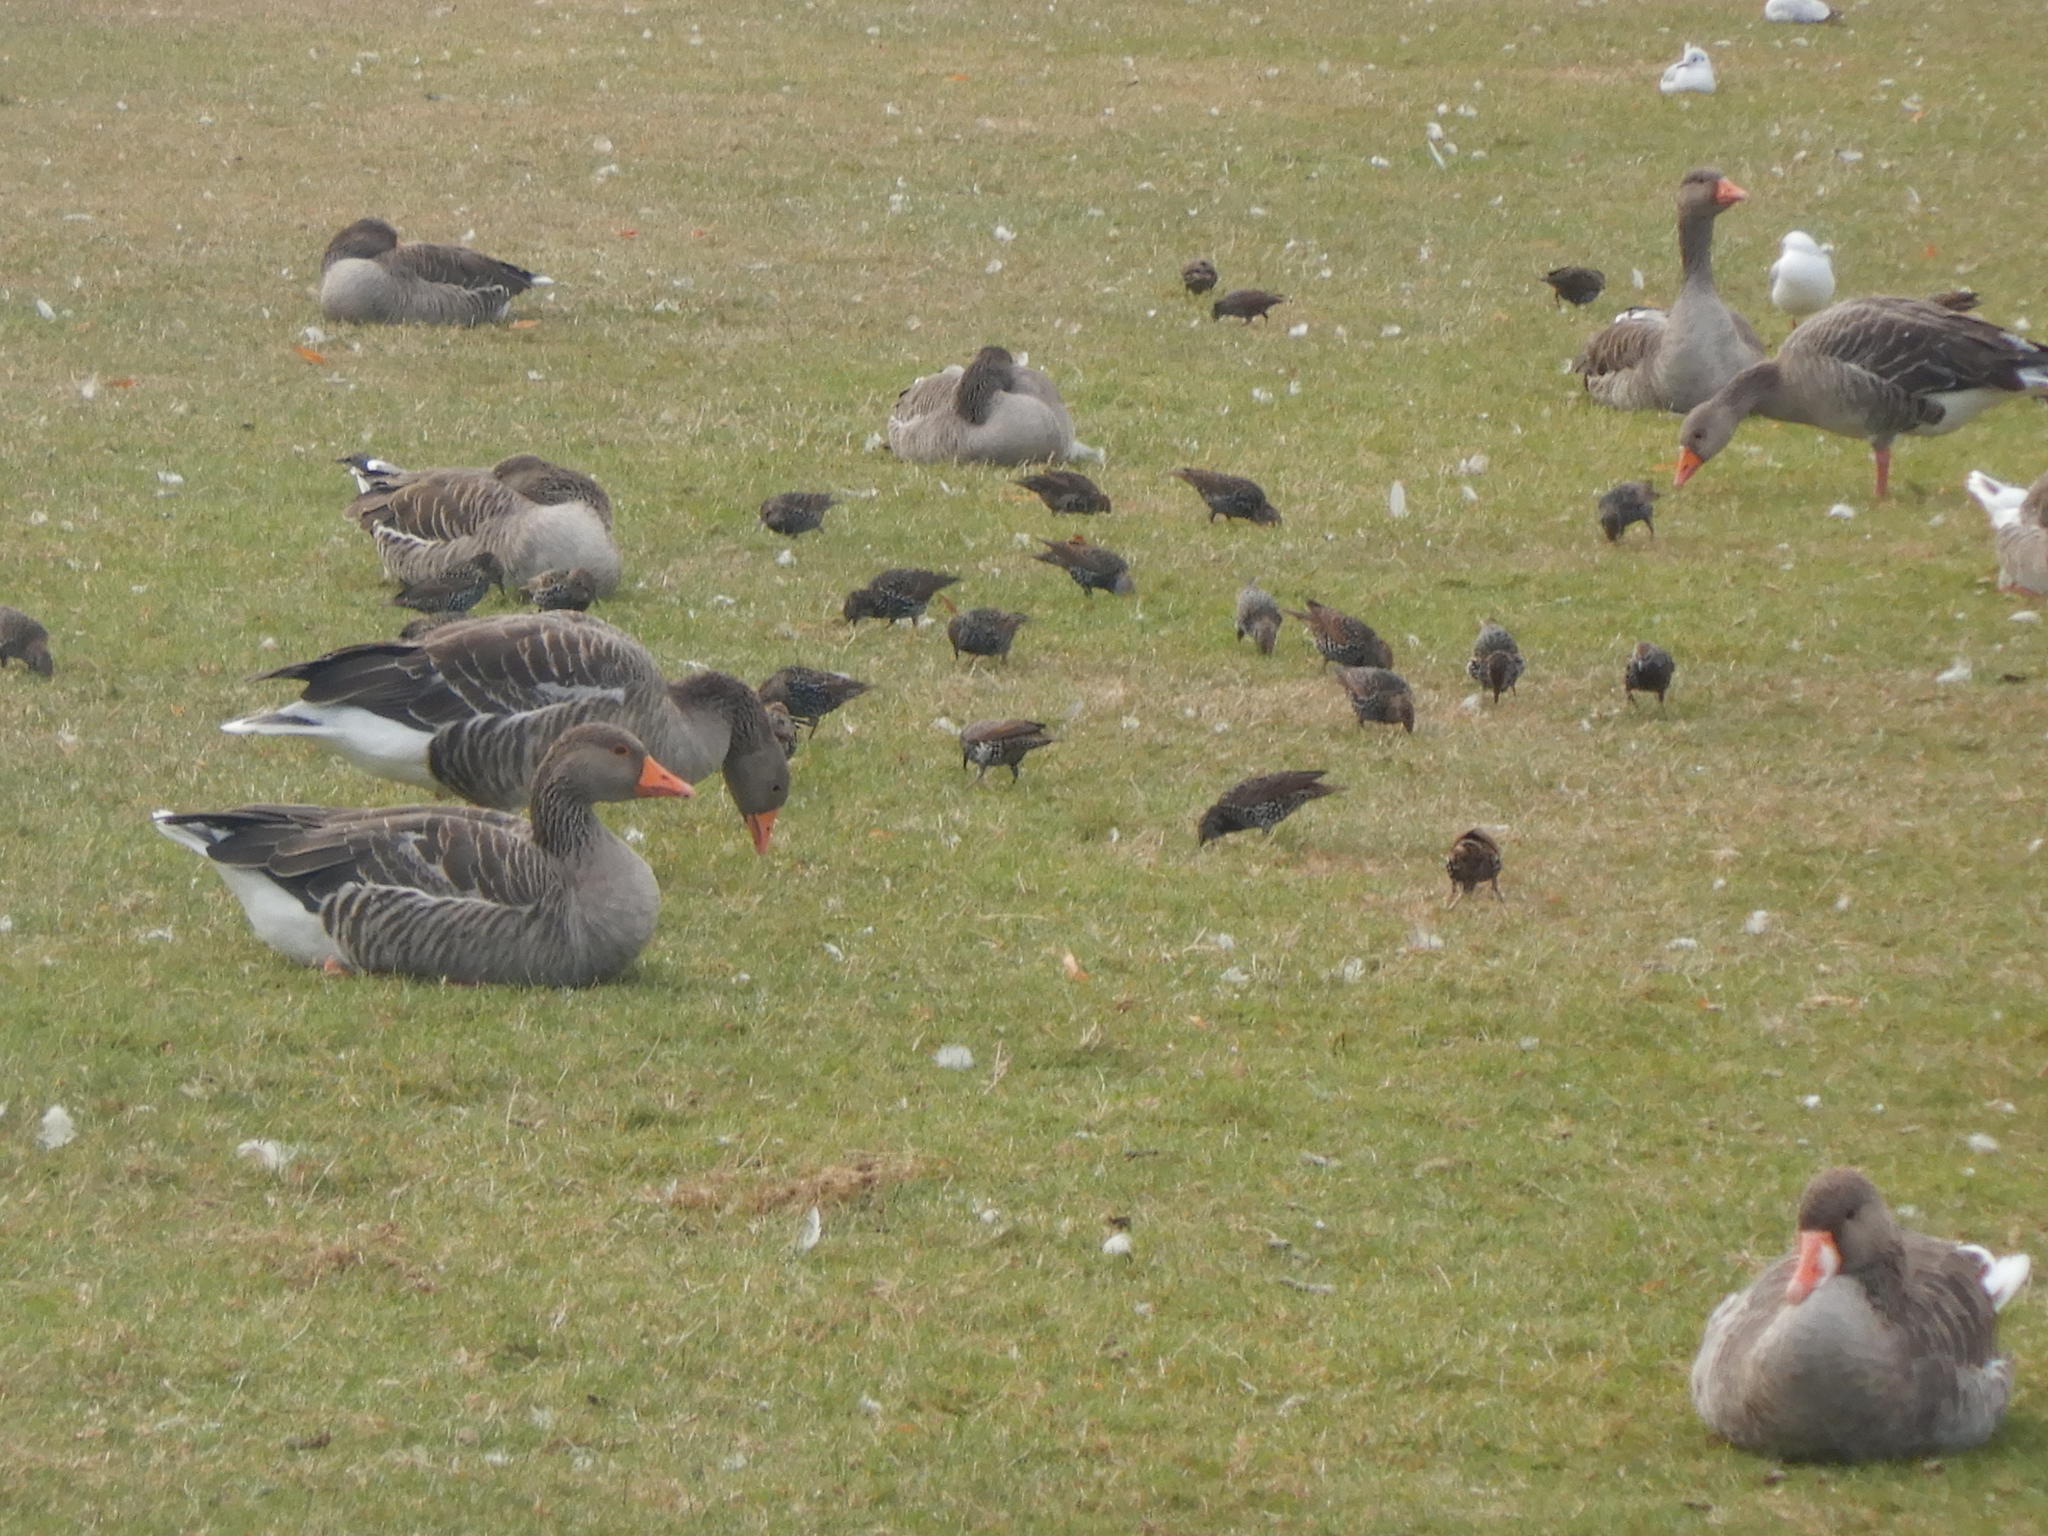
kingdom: Animalia
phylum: Chordata
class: Aves
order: Anseriformes
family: Anatidae
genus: Anser
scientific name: Anser anser
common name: Greylag goose
